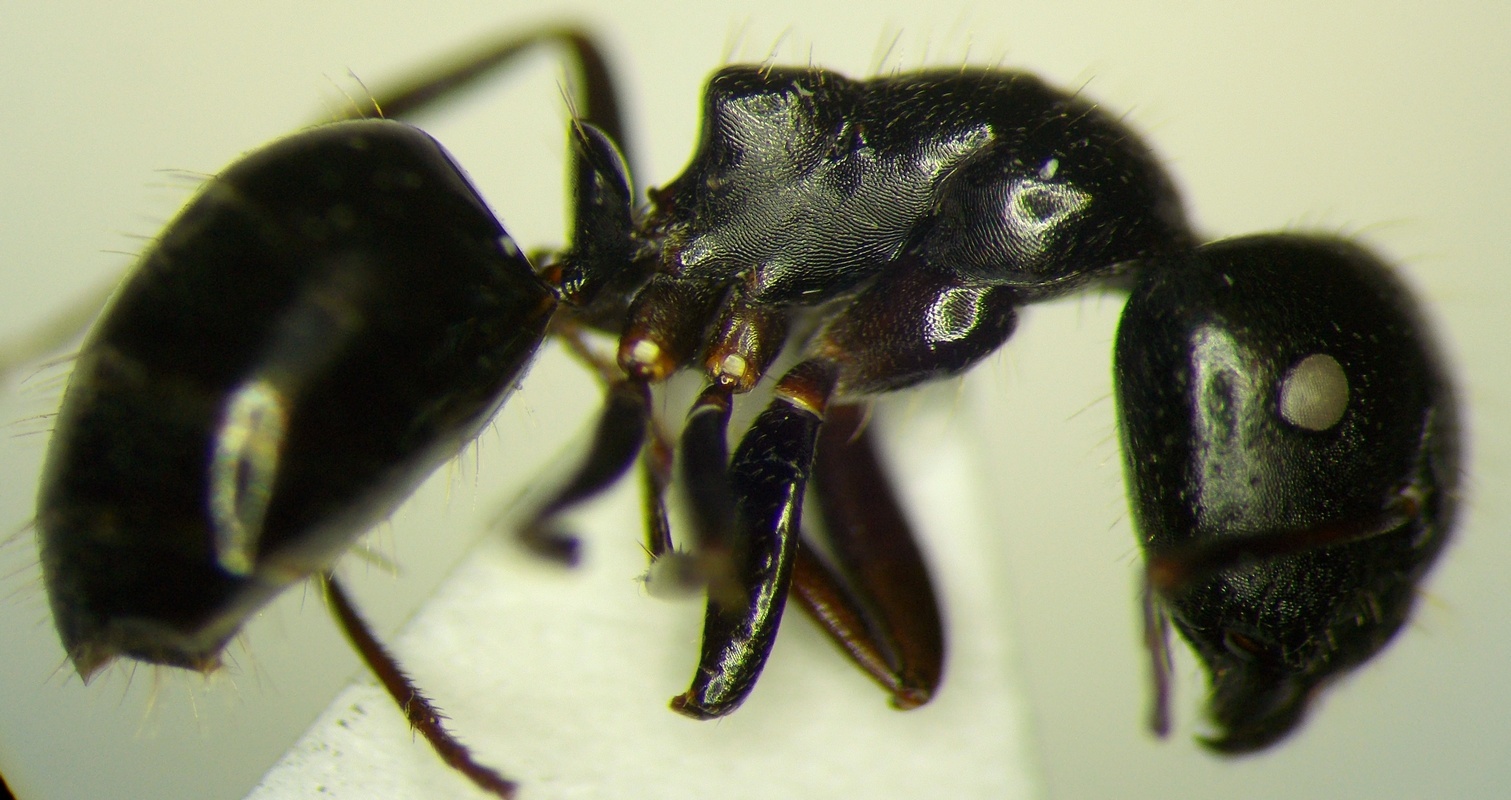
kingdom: Animalia
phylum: Arthropoda
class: Insecta
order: Hymenoptera
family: Formicidae
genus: Camponotus
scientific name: Camponotus piceus
